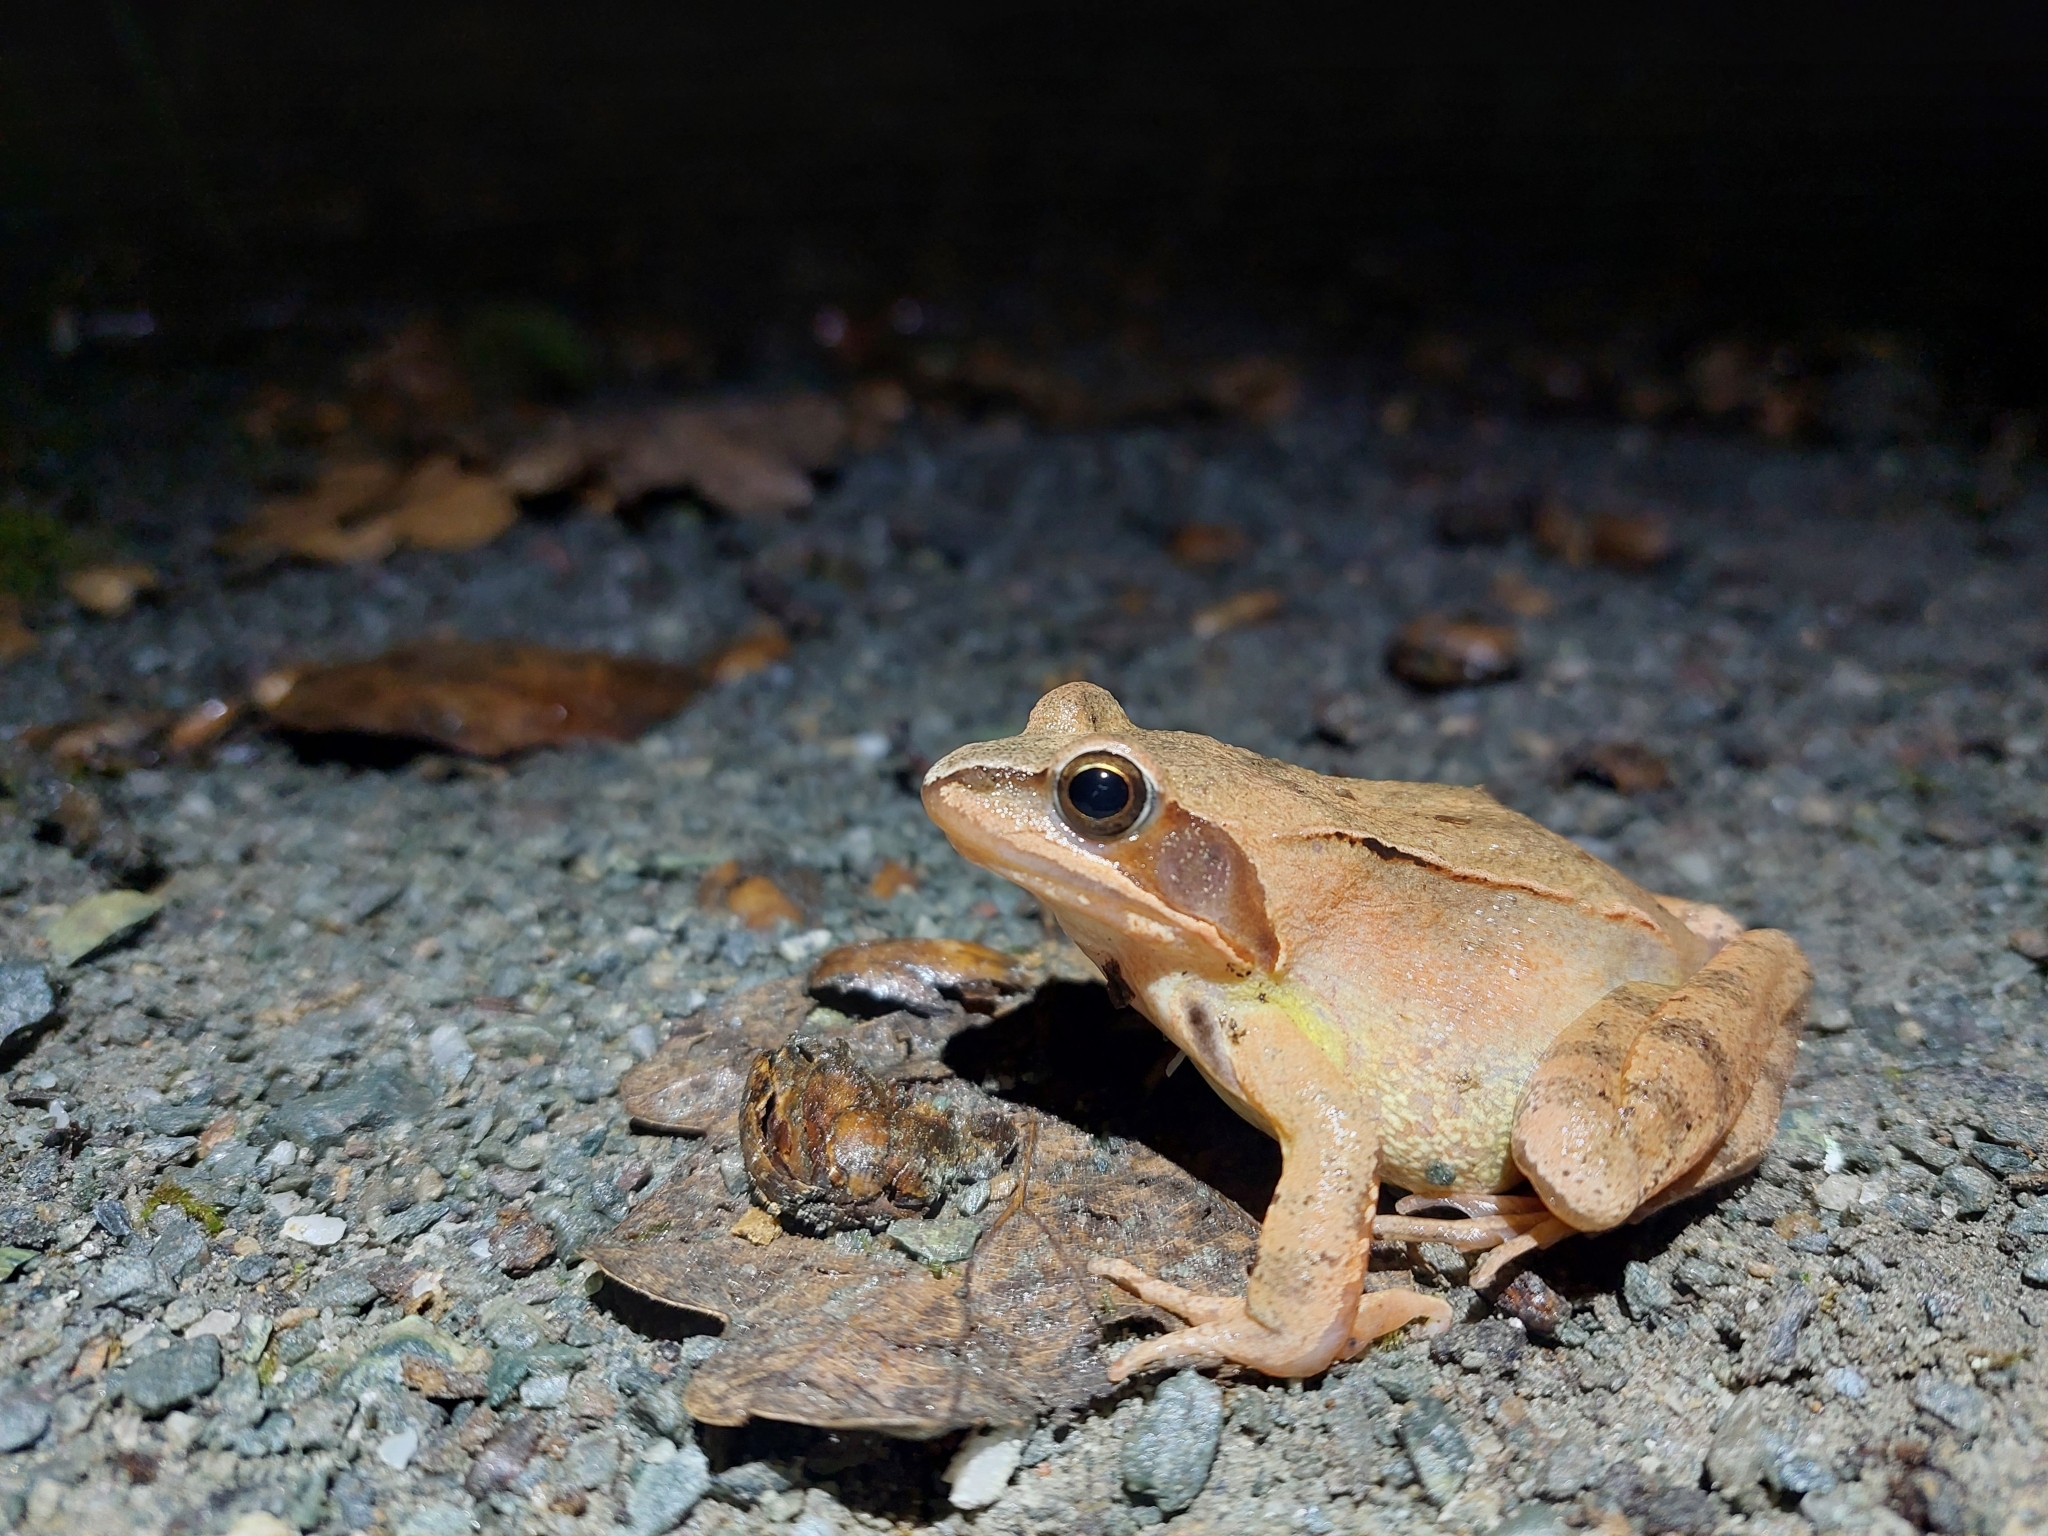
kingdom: Animalia
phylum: Chordata
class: Amphibia
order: Anura
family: Ranidae
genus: Rana
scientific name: Rana dalmatina
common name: Agile frog
